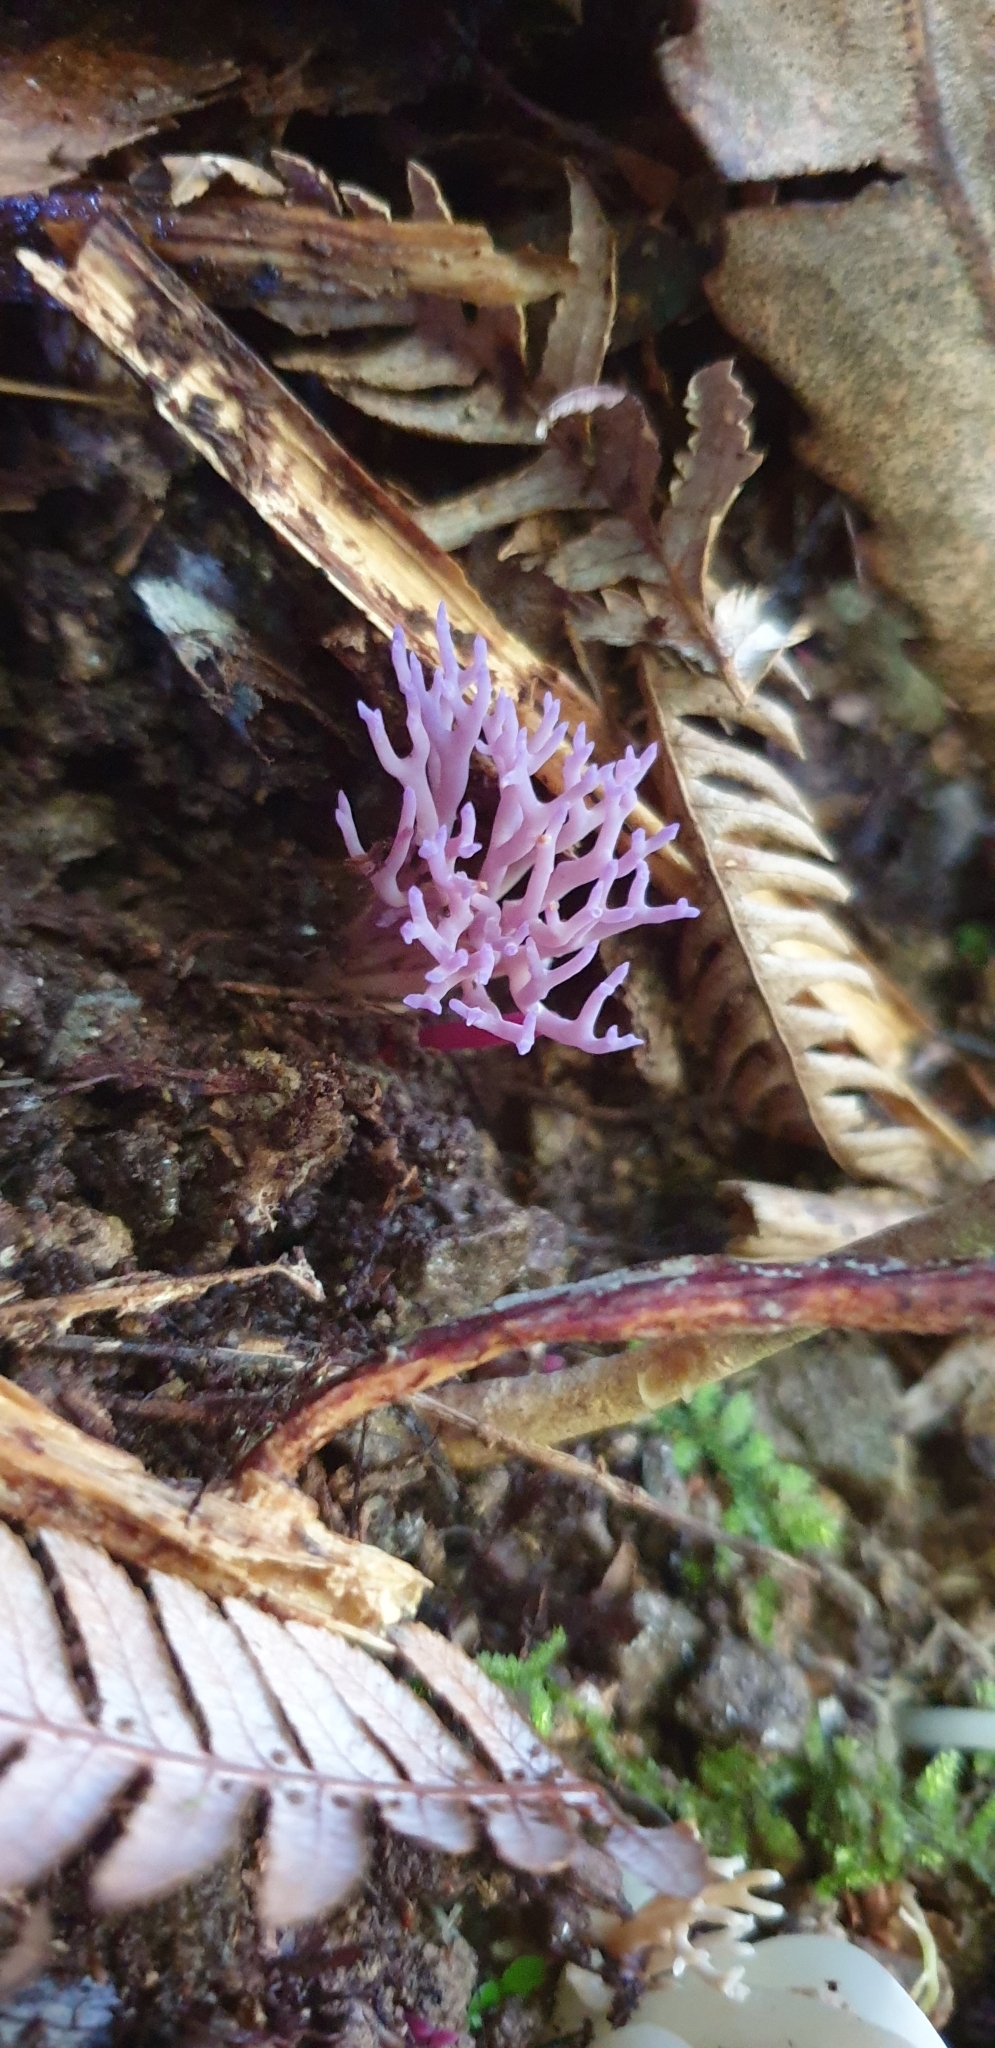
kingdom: Fungi
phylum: Basidiomycota
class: Agaricomycetes
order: Agaricales
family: Clavariaceae
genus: Ramariopsis
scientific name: Ramariopsis pulchella
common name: Lilac coral
